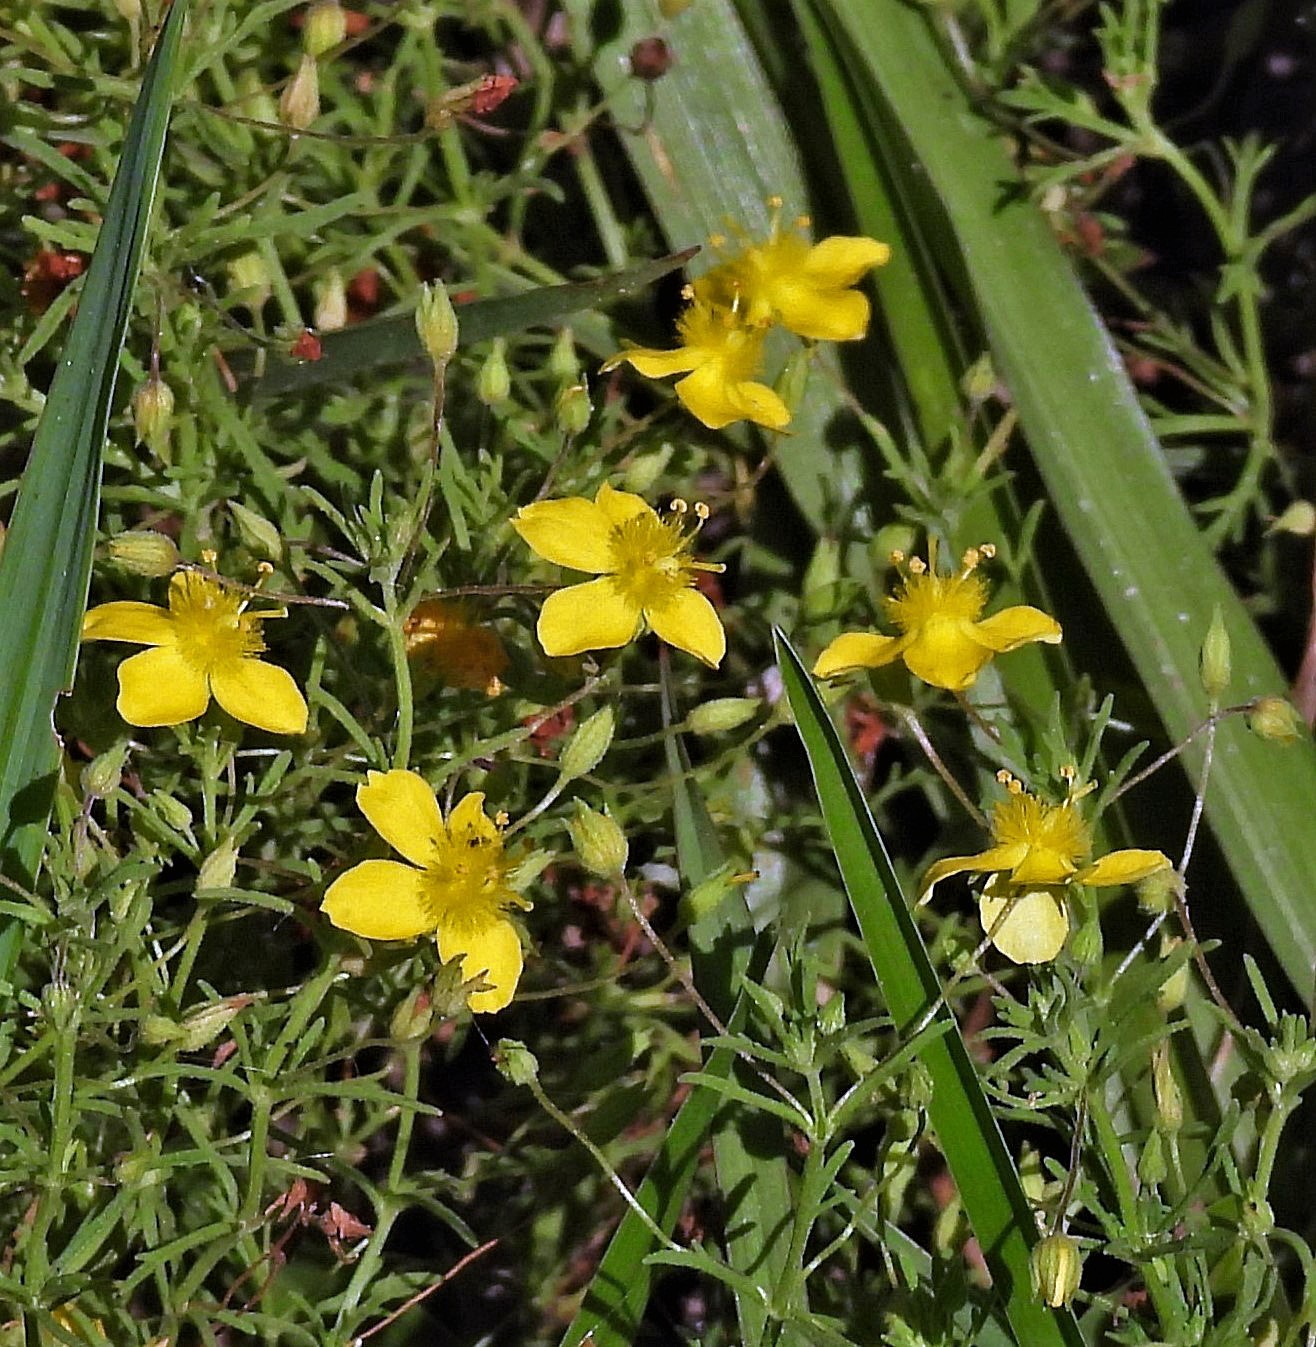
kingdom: Plantae
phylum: Tracheophyta
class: Magnoliopsida
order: Lamiales
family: Plantaginaceae
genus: Scoparia
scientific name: Scoparia montevidensis
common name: Broomwort
